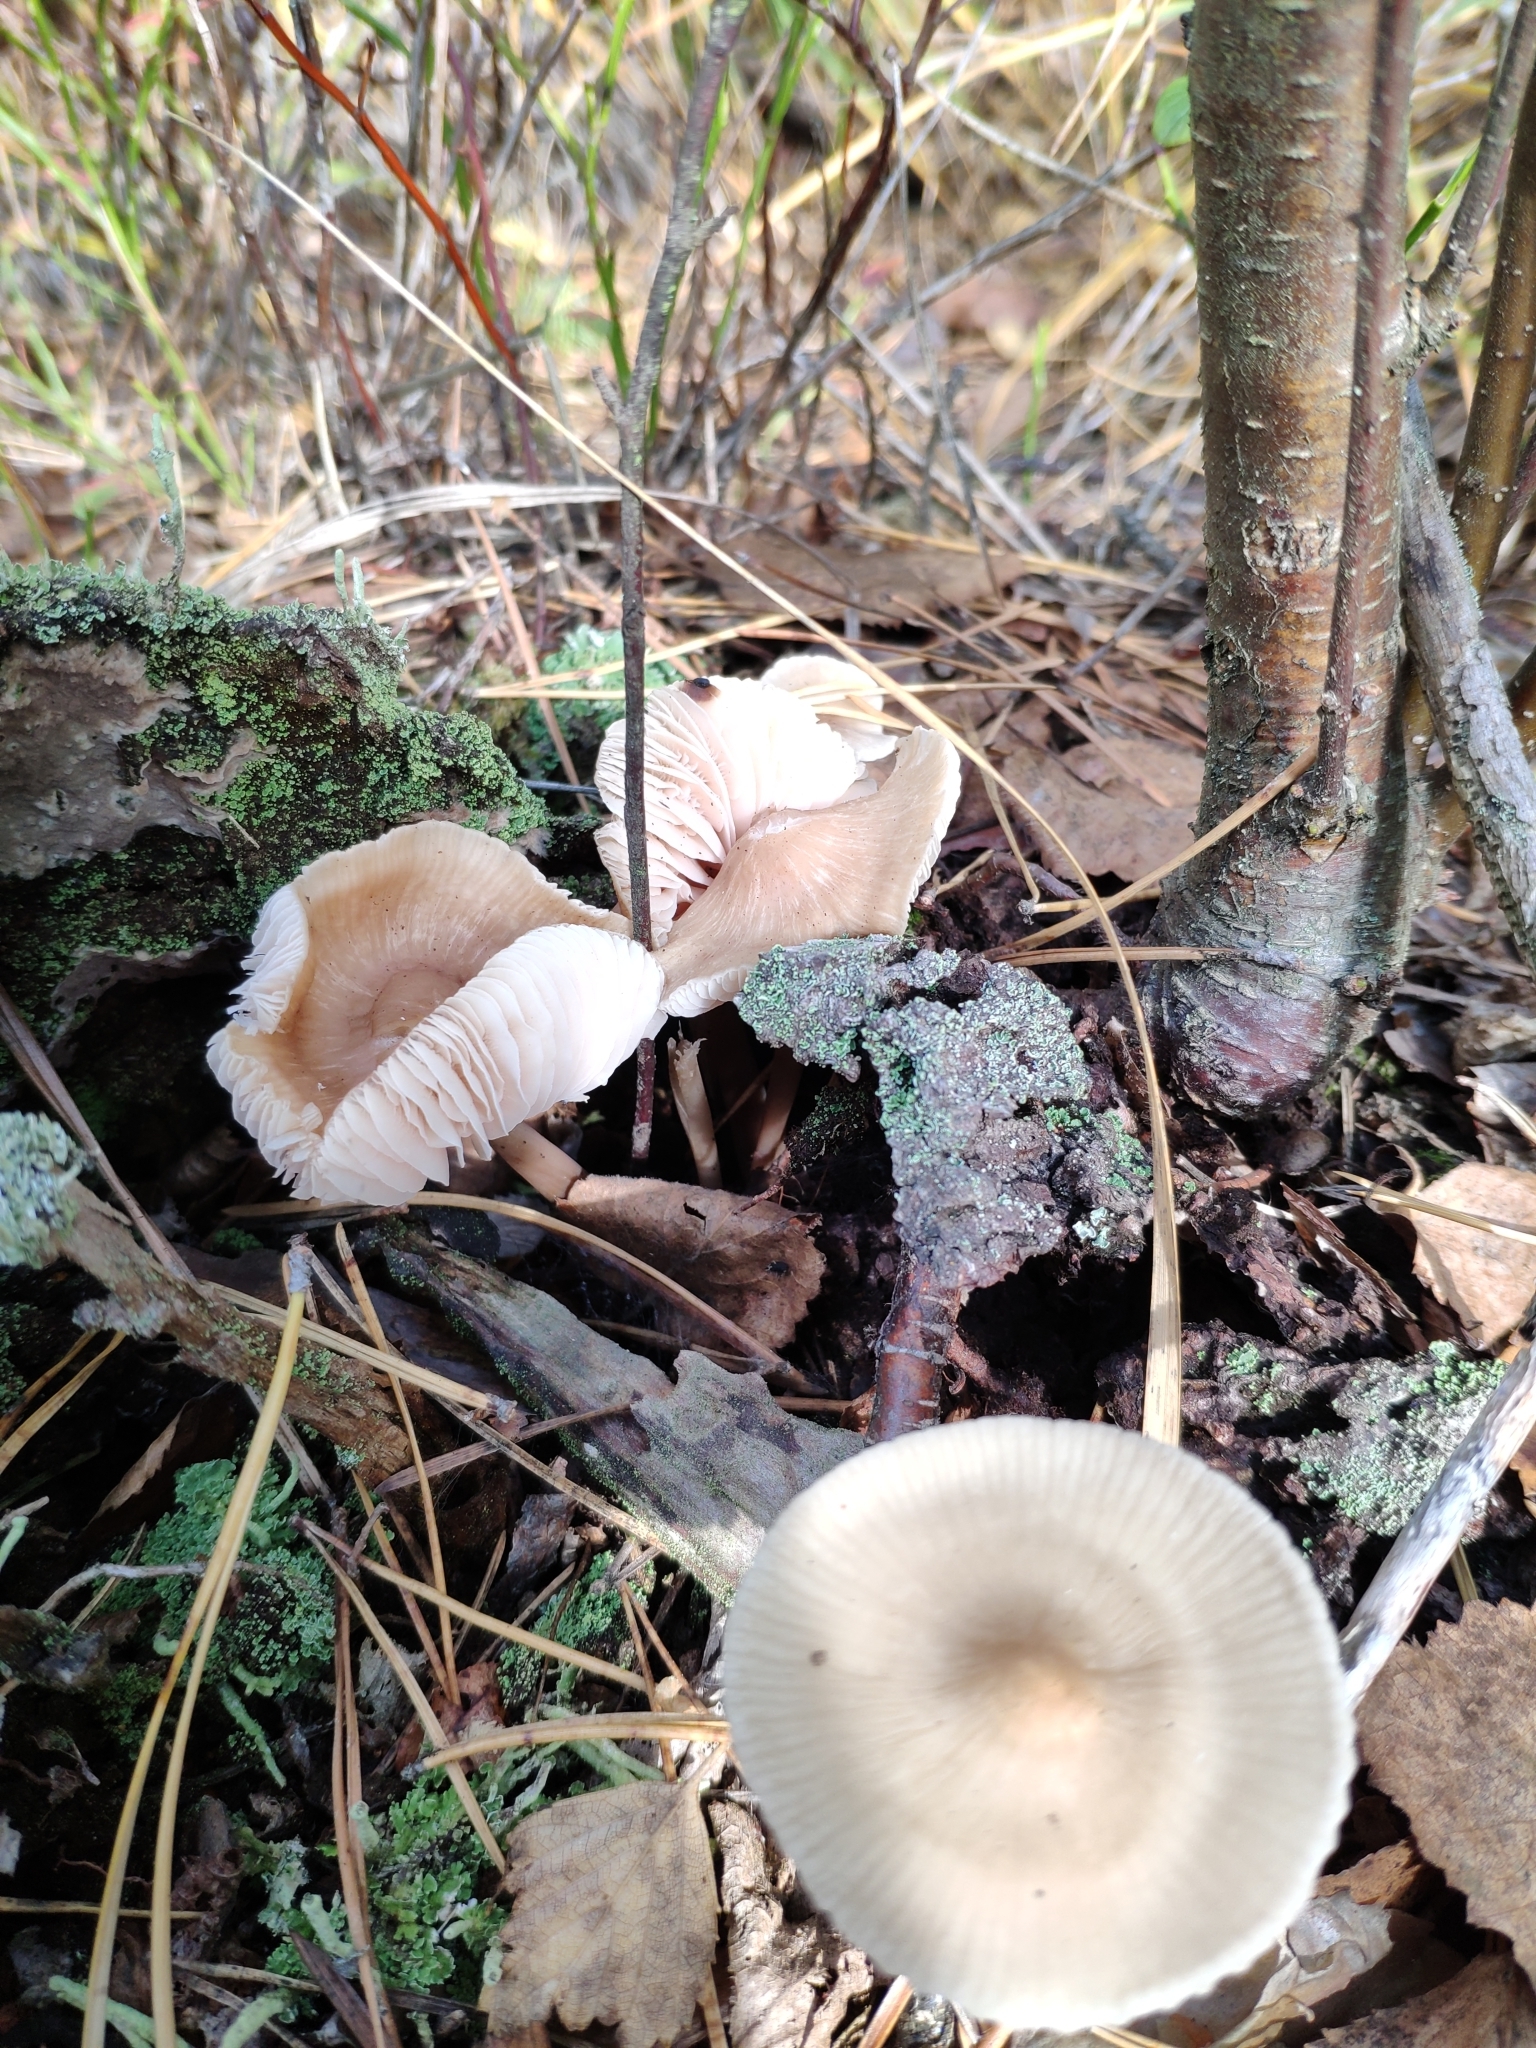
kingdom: Fungi
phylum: Basidiomycota
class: Agaricomycetes
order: Agaricales
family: Mycenaceae
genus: Mycena
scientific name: Mycena galericulata
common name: Bonnet mycena
